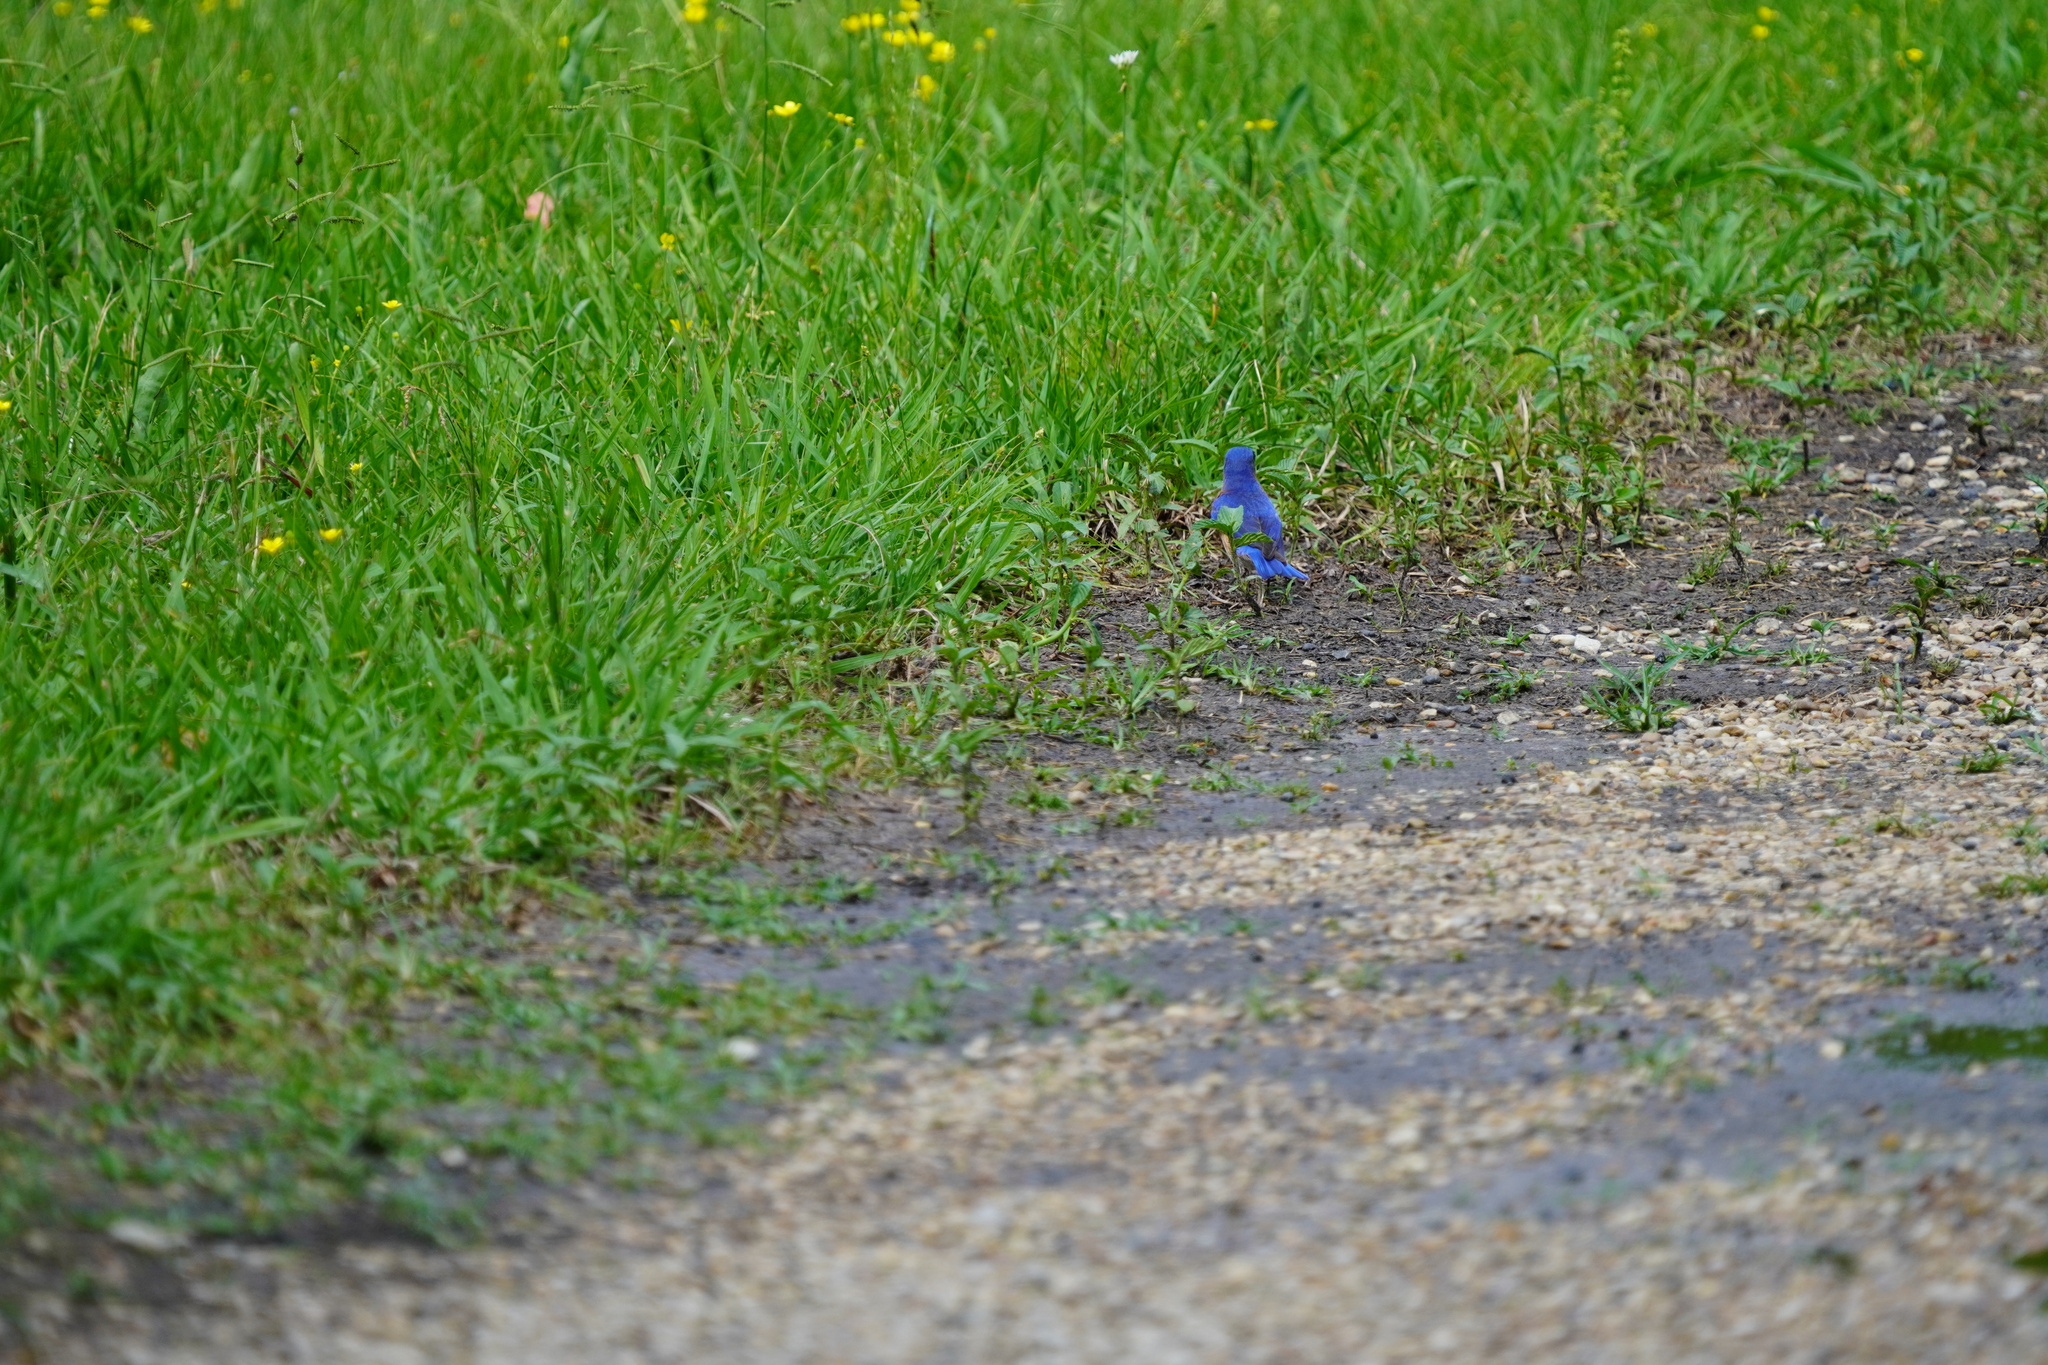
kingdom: Animalia
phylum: Chordata
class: Aves
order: Passeriformes
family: Turdidae
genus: Sialia
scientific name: Sialia sialis
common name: Eastern bluebird
